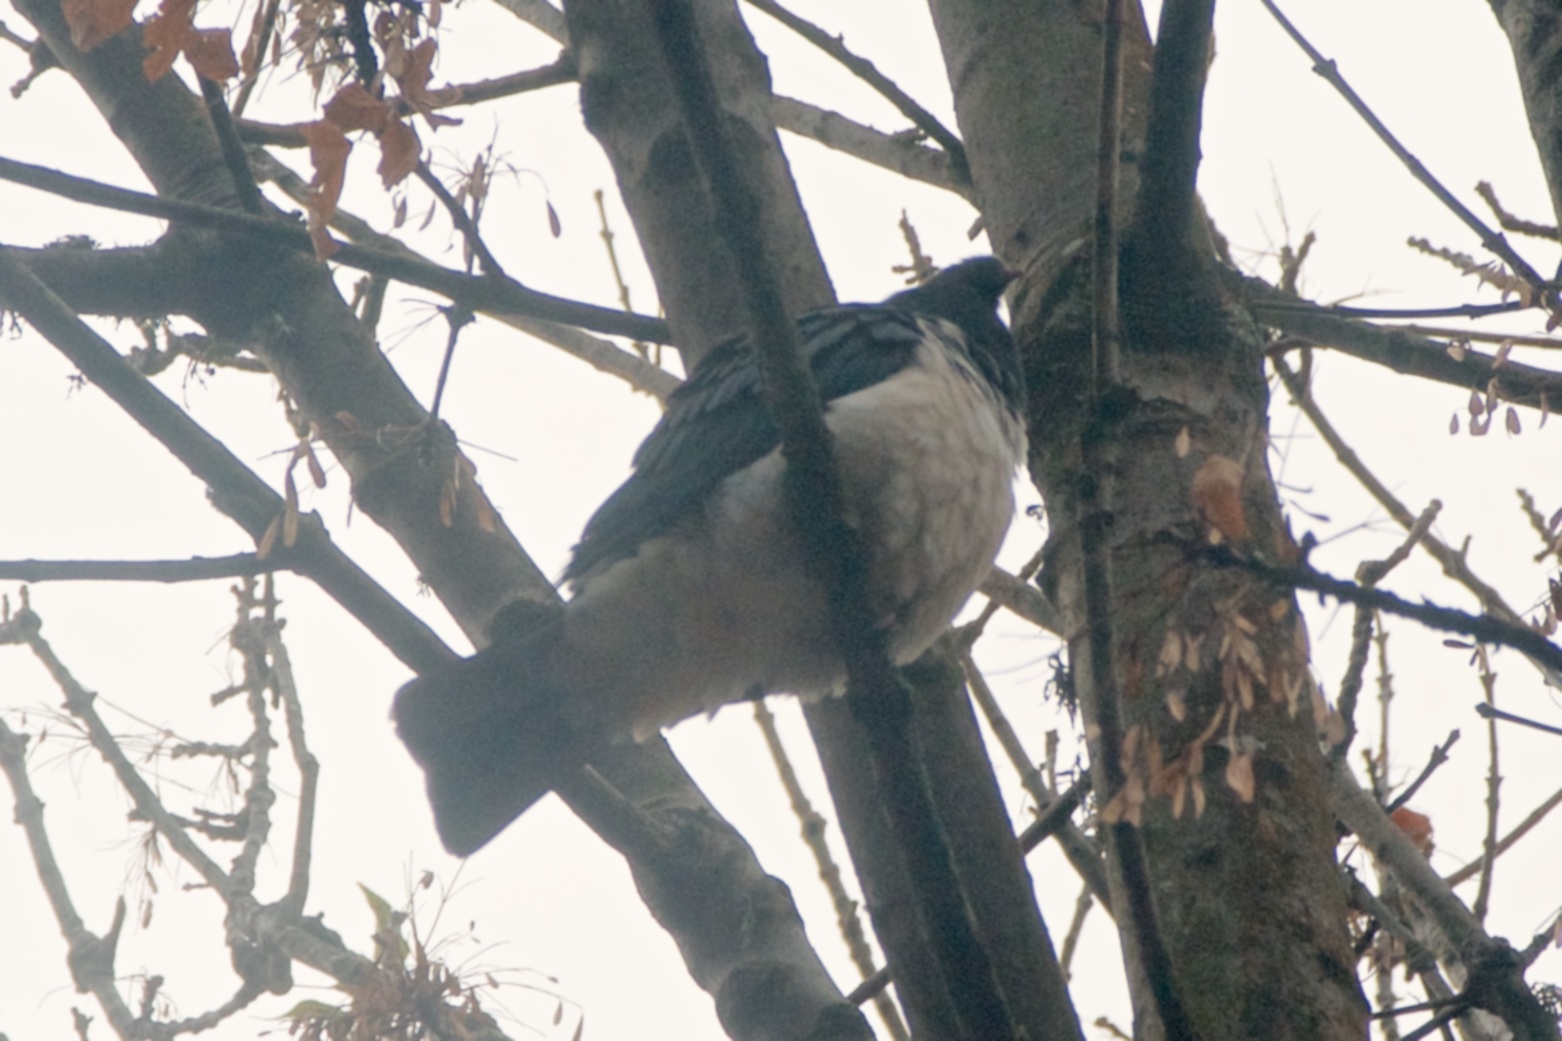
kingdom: Animalia
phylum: Chordata
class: Aves
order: Columbiformes
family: Columbidae
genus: Hemiphaga
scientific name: Hemiphaga novaeseelandiae
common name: New zealand pigeon
